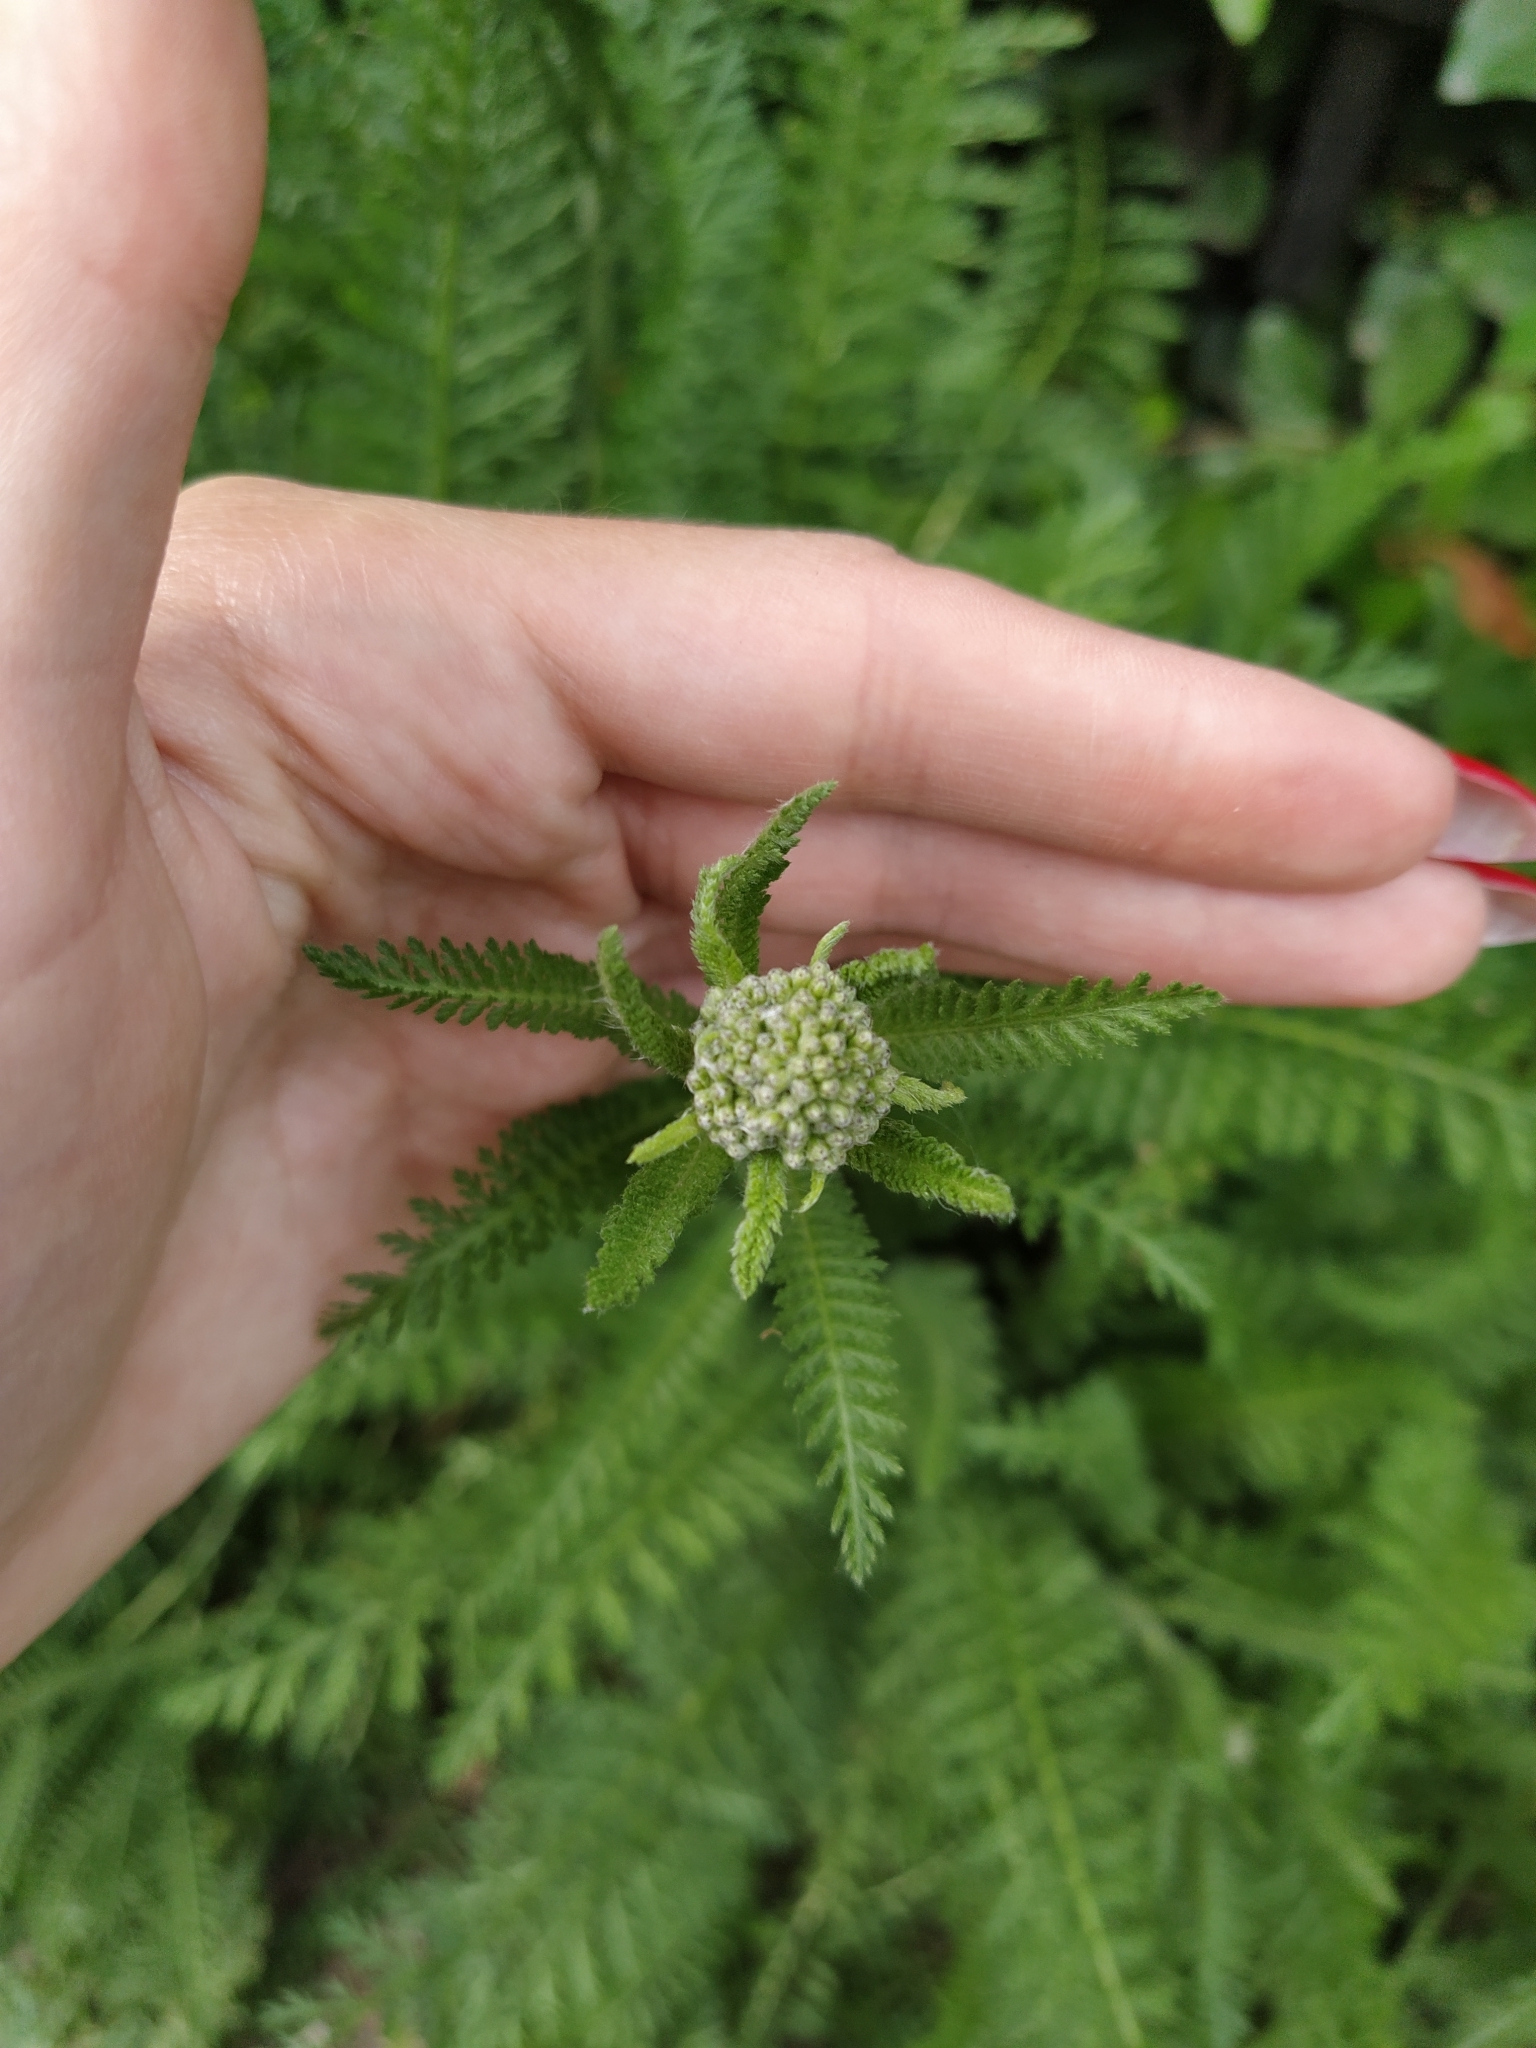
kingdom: Plantae
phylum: Tracheophyta
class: Magnoliopsida
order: Asterales
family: Asteraceae
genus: Achillea
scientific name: Achillea millefolium
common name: Yarrow
